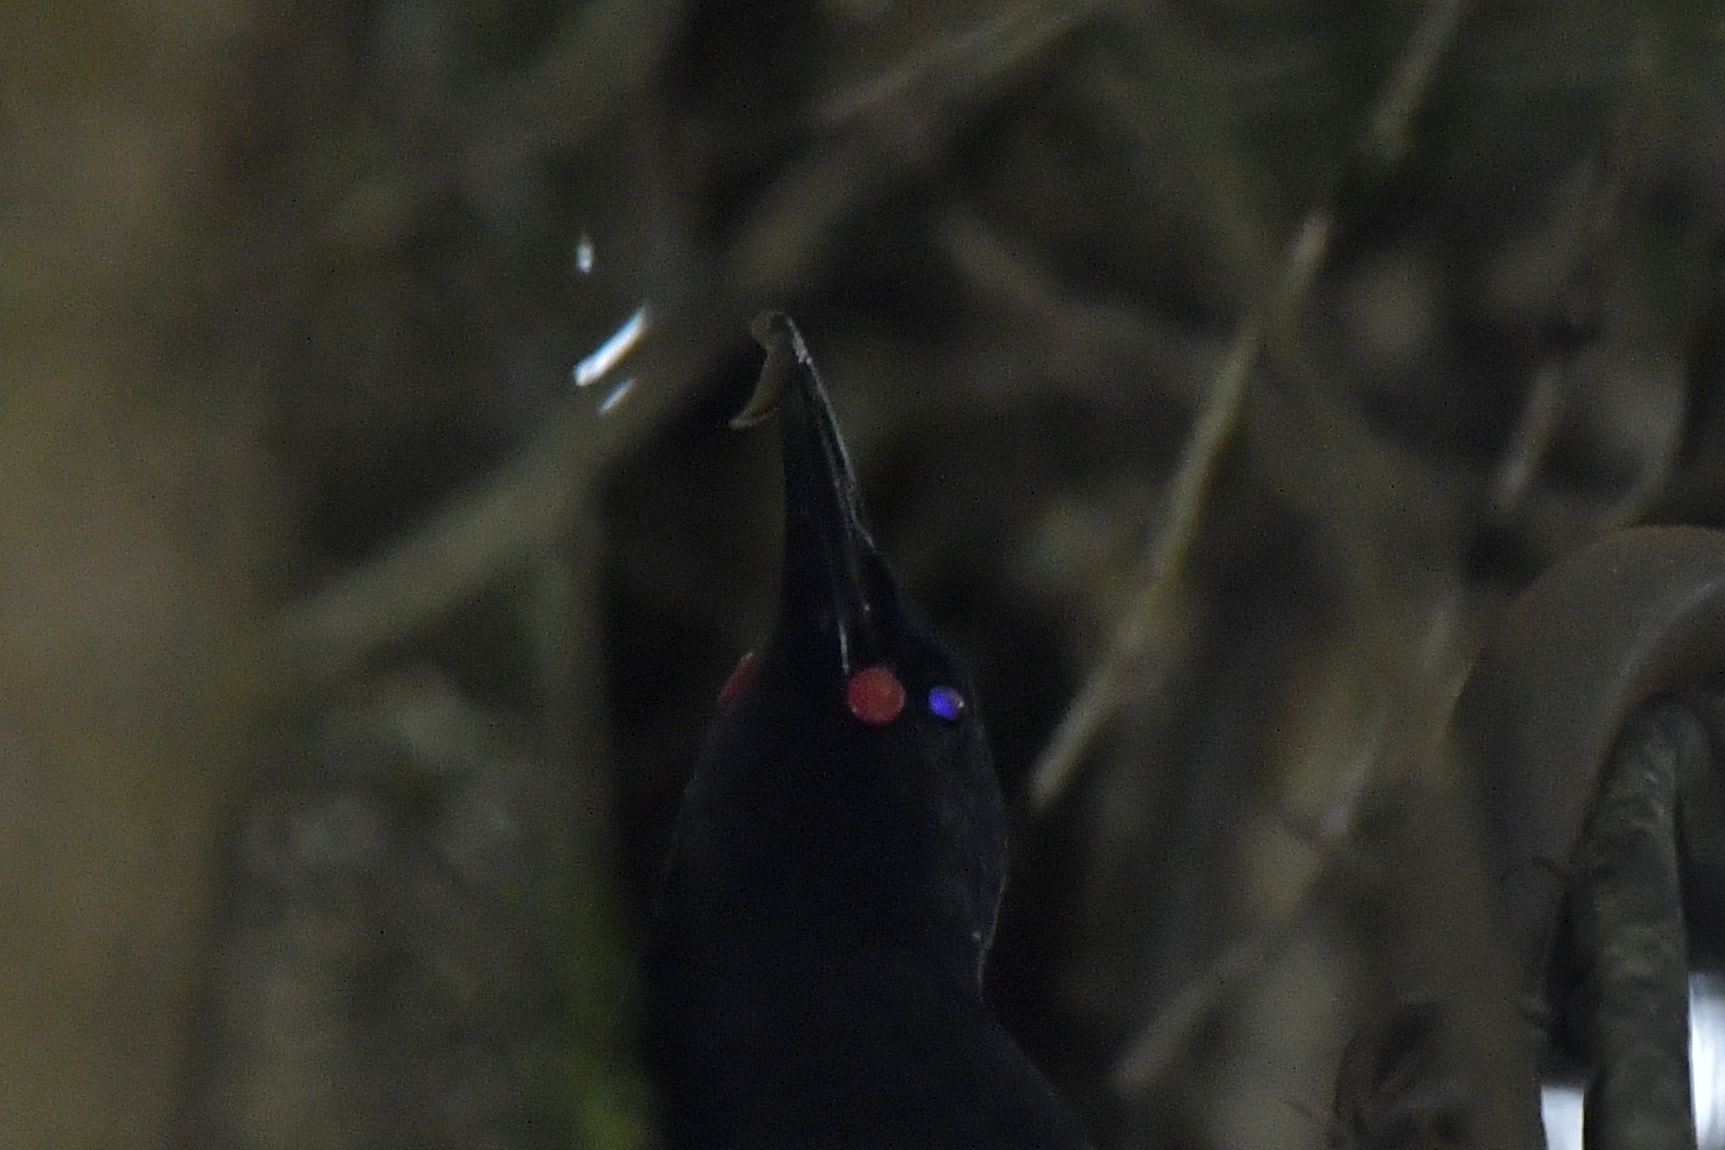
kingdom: Animalia
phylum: Chordata
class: Aves
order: Passeriformes
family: Callaeatidae
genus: Philesturnus
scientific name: Philesturnus carunculatus
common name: South island saddleback
